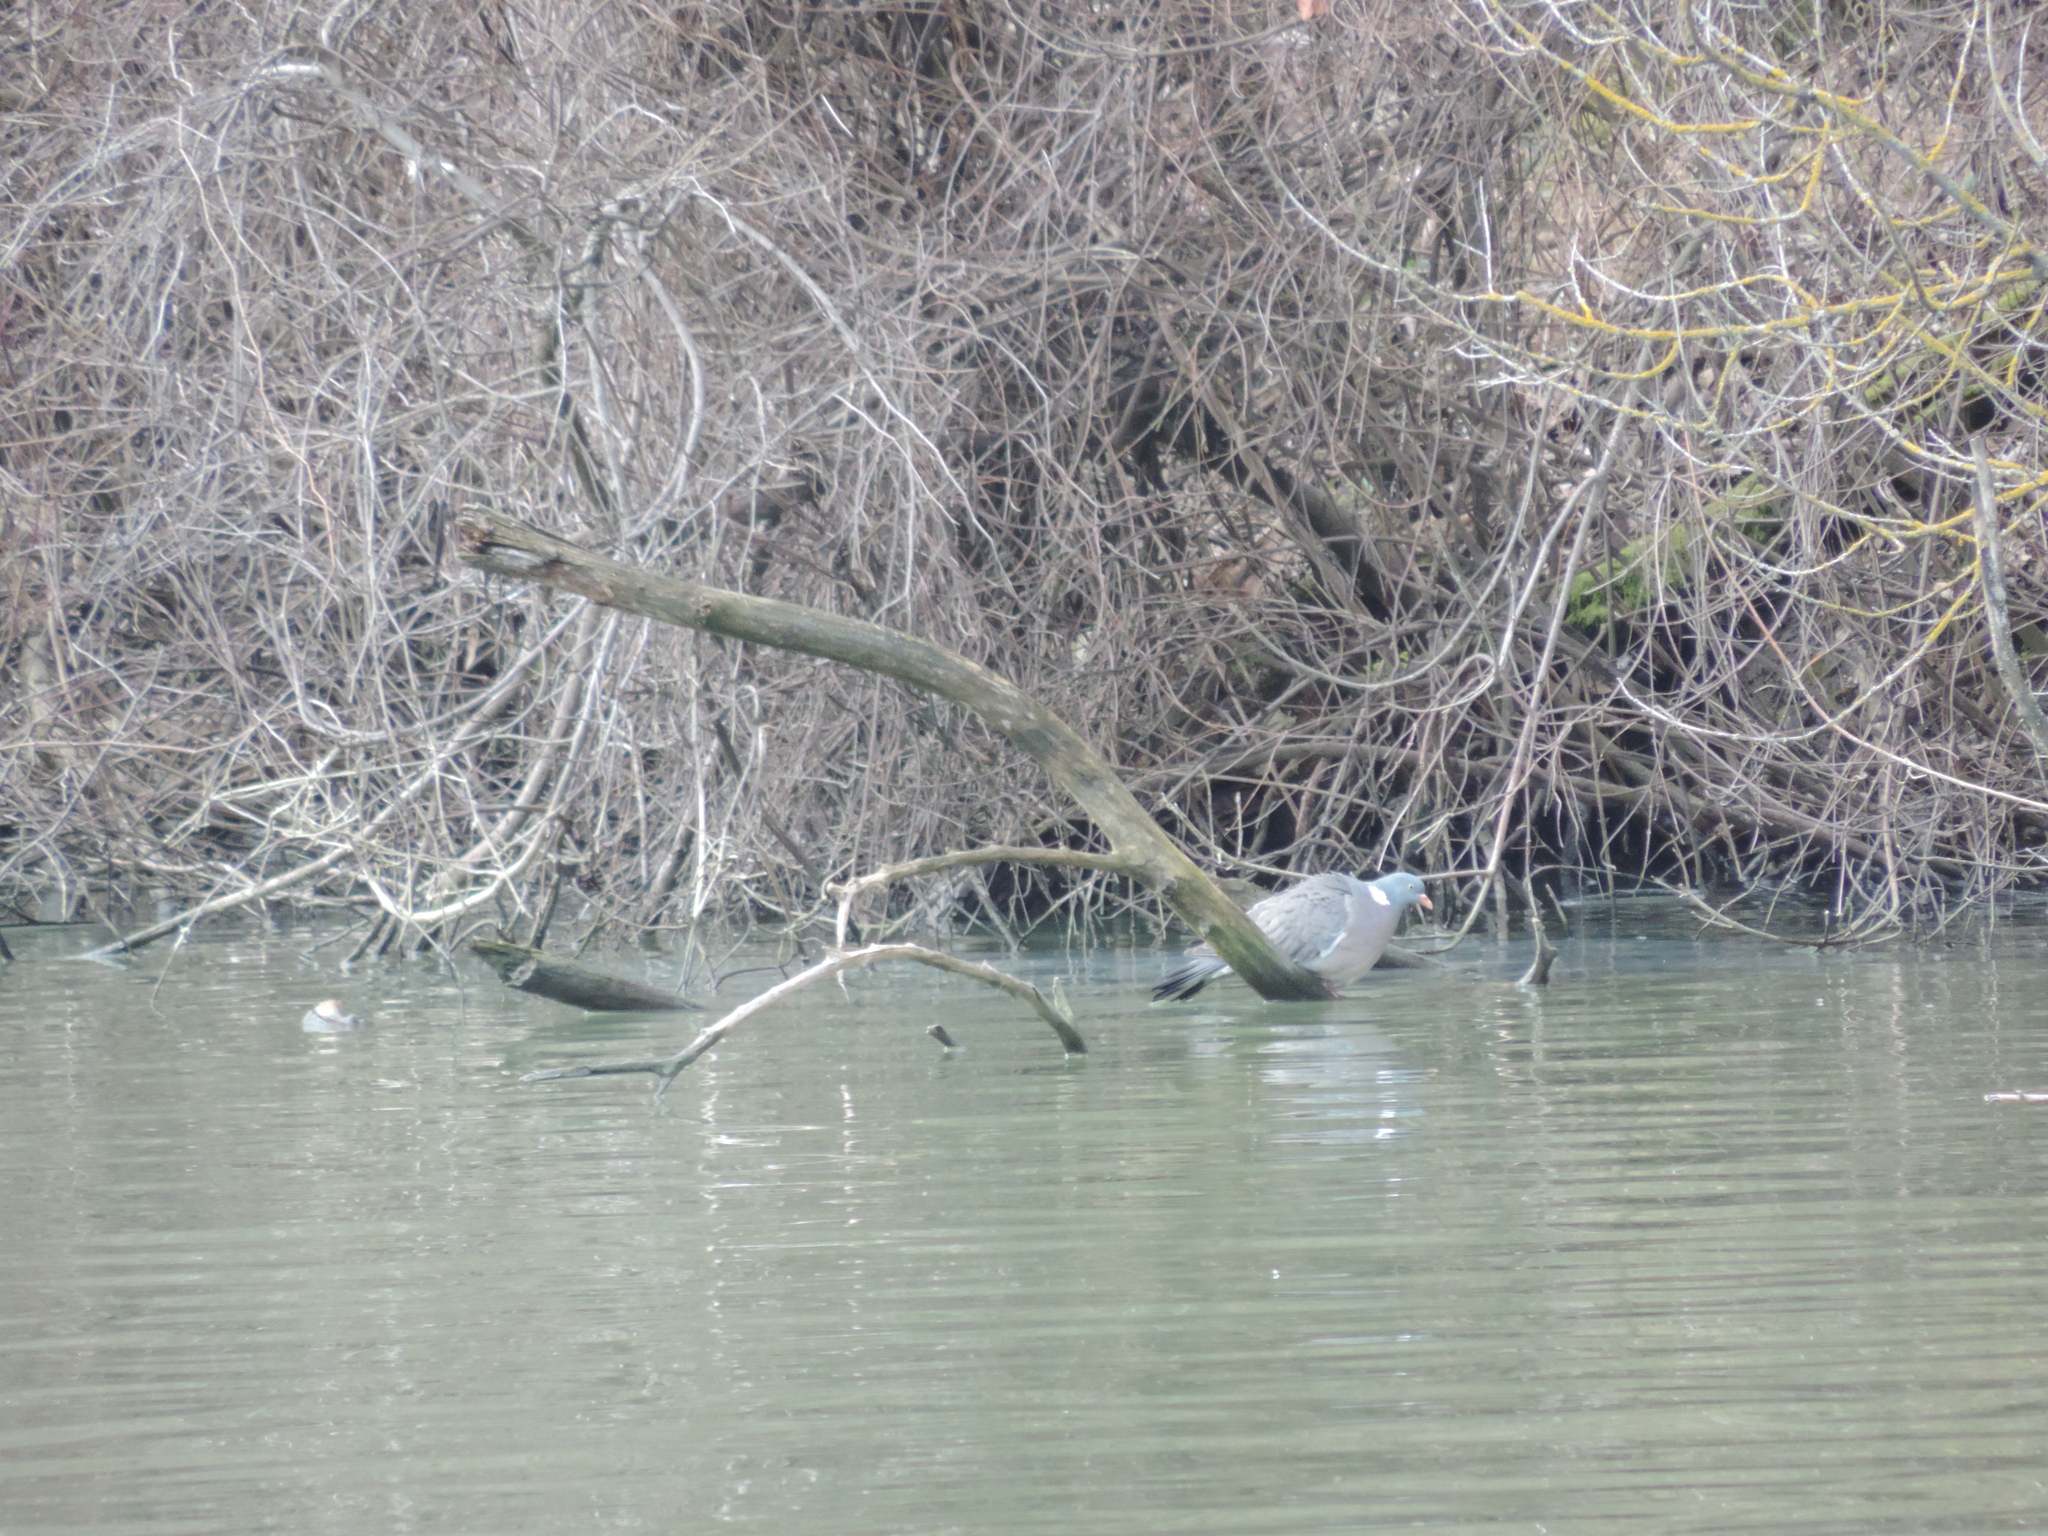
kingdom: Animalia
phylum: Chordata
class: Aves
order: Columbiformes
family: Columbidae
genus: Columba
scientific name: Columba palumbus
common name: Common wood pigeon
